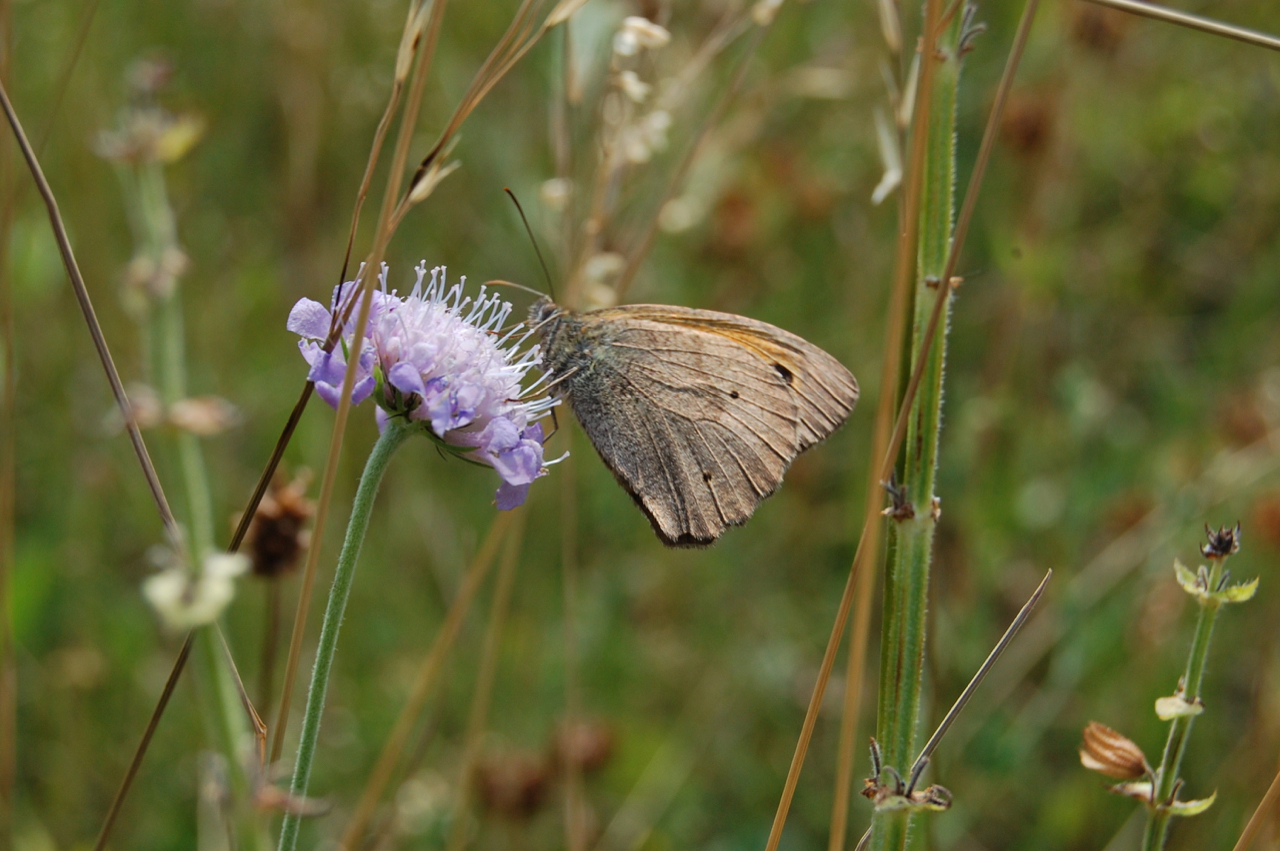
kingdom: Animalia
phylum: Arthropoda
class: Insecta
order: Lepidoptera
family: Nymphalidae
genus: Maniola
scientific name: Maniola jurtina
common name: Meadow brown
